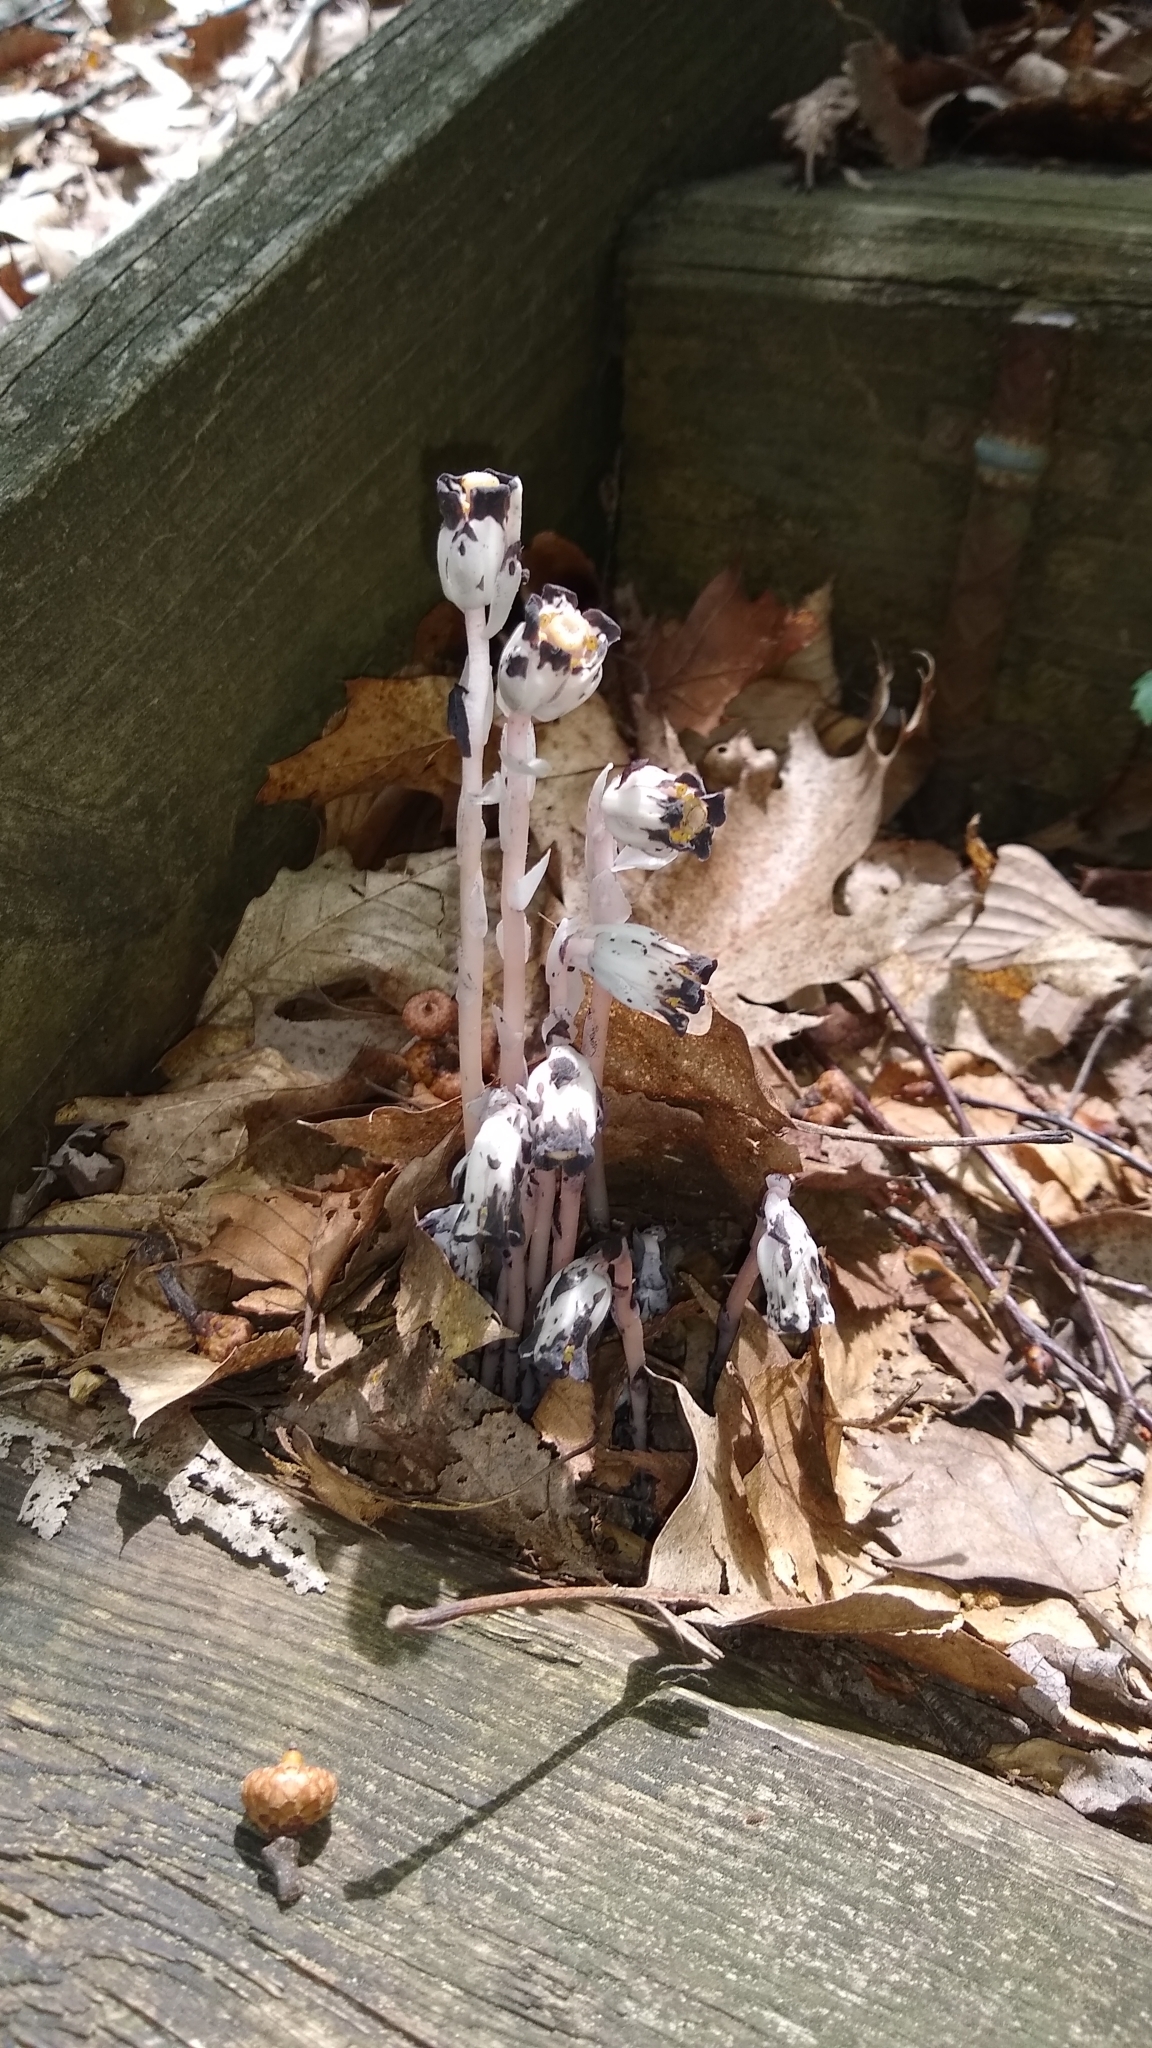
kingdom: Plantae
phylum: Tracheophyta
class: Magnoliopsida
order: Ericales
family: Ericaceae
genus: Monotropa
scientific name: Monotropa uniflora
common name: Convulsion root
